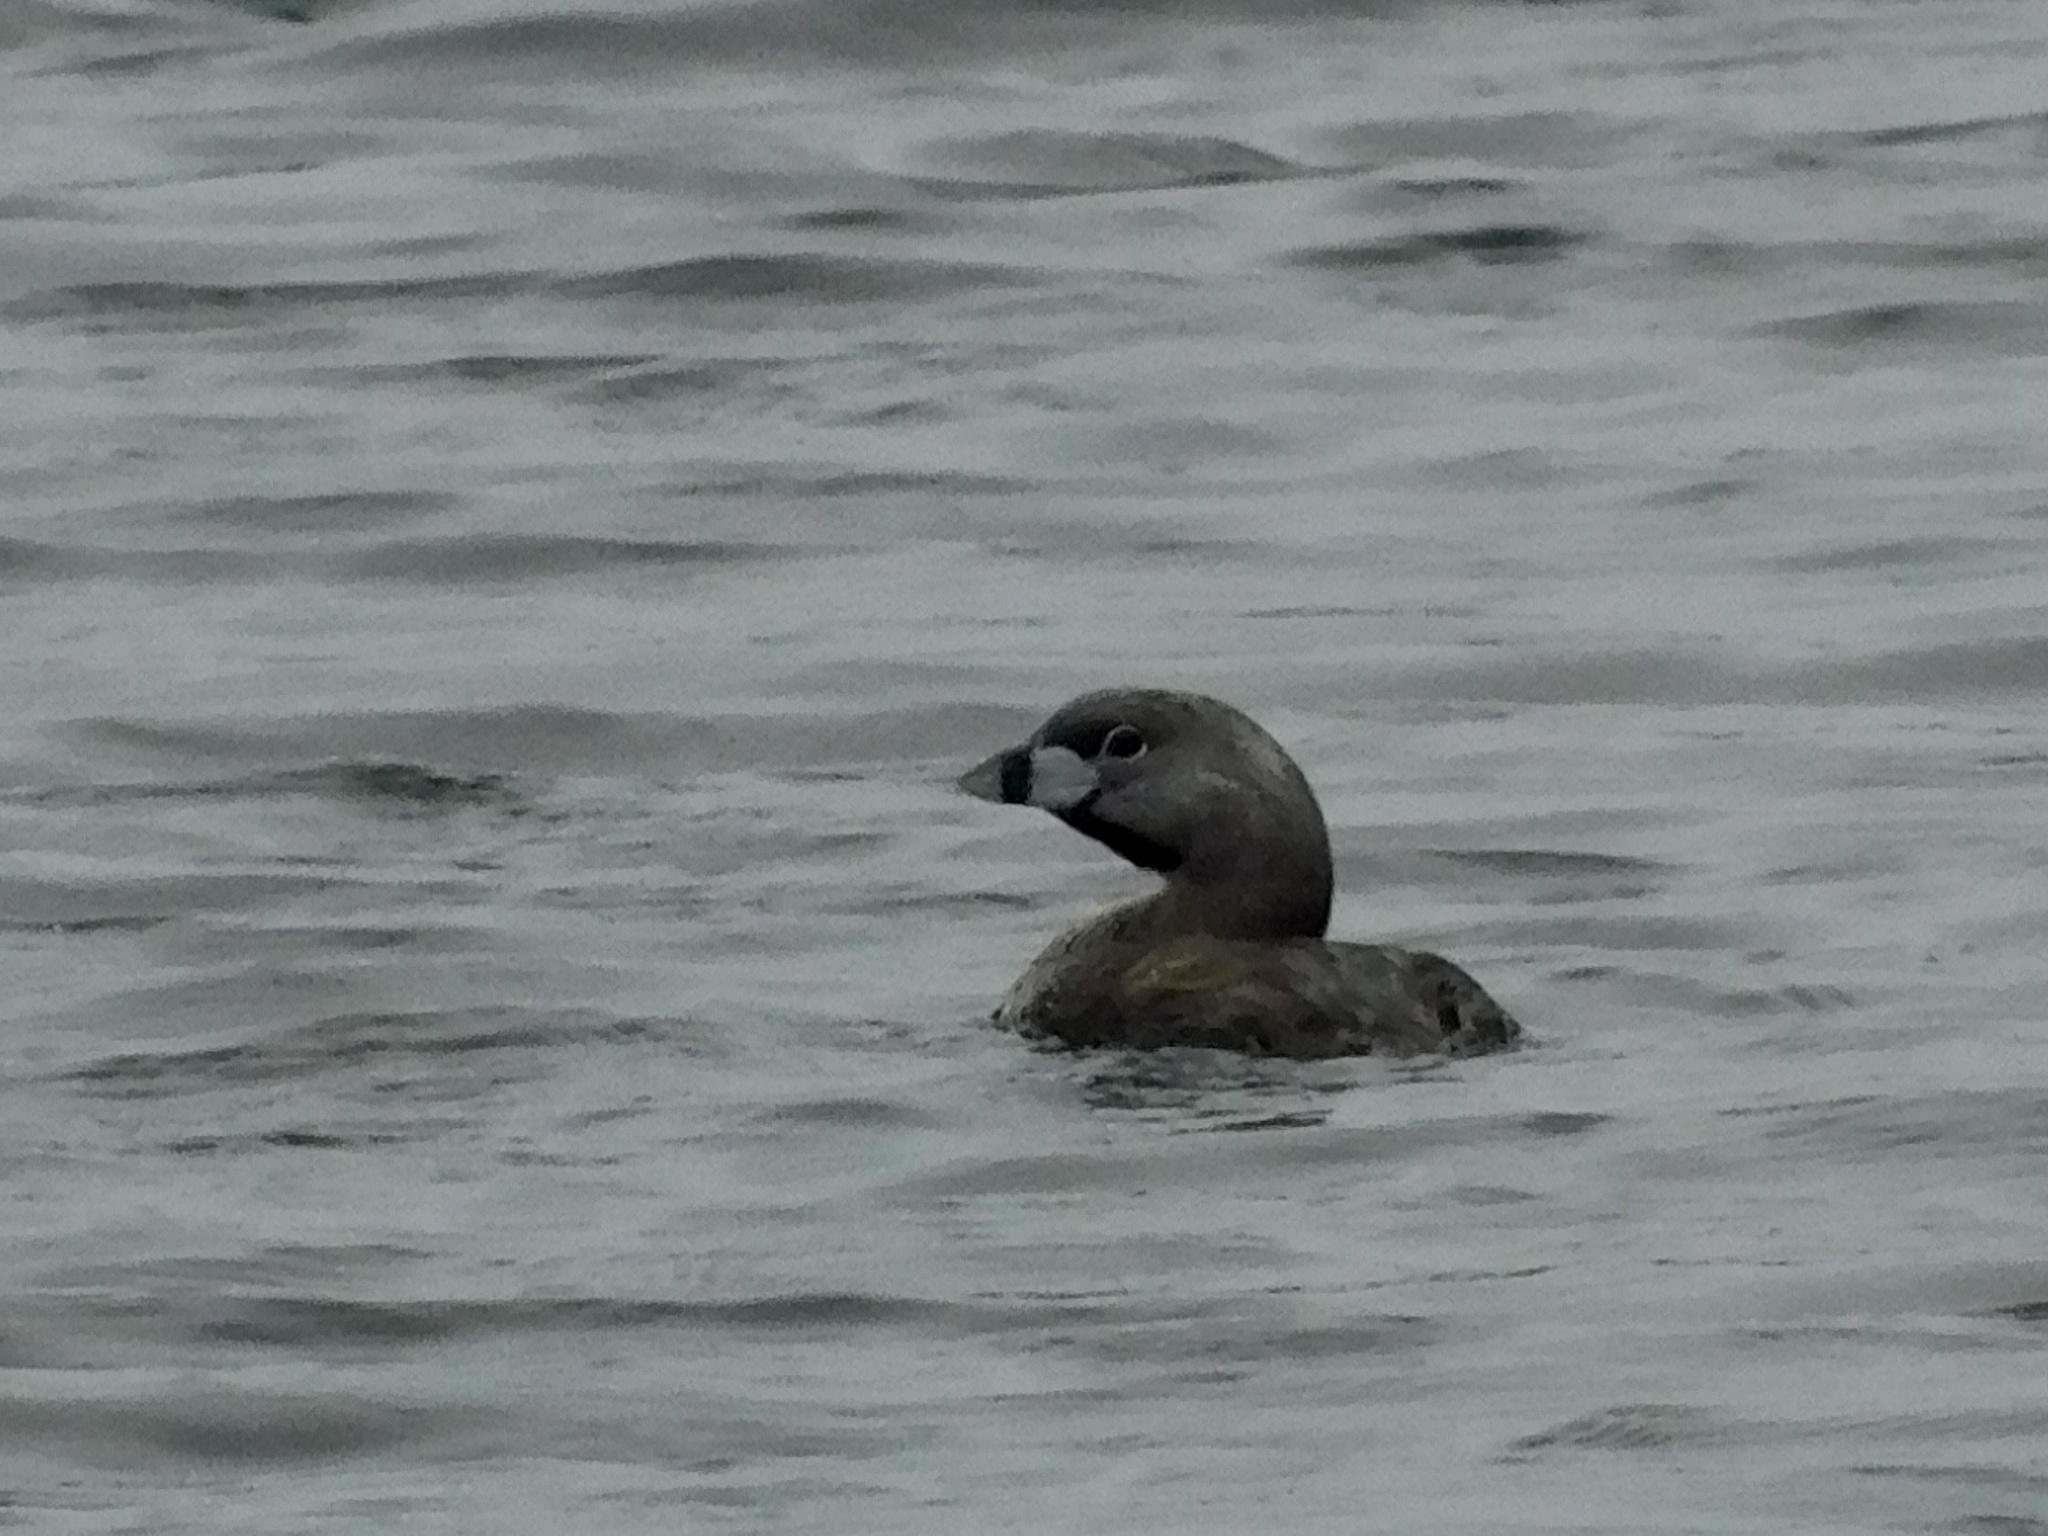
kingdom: Animalia
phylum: Chordata
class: Aves
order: Podicipediformes
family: Podicipedidae
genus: Podilymbus
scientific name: Podilymbus podiceps
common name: Pied-billed grebe
